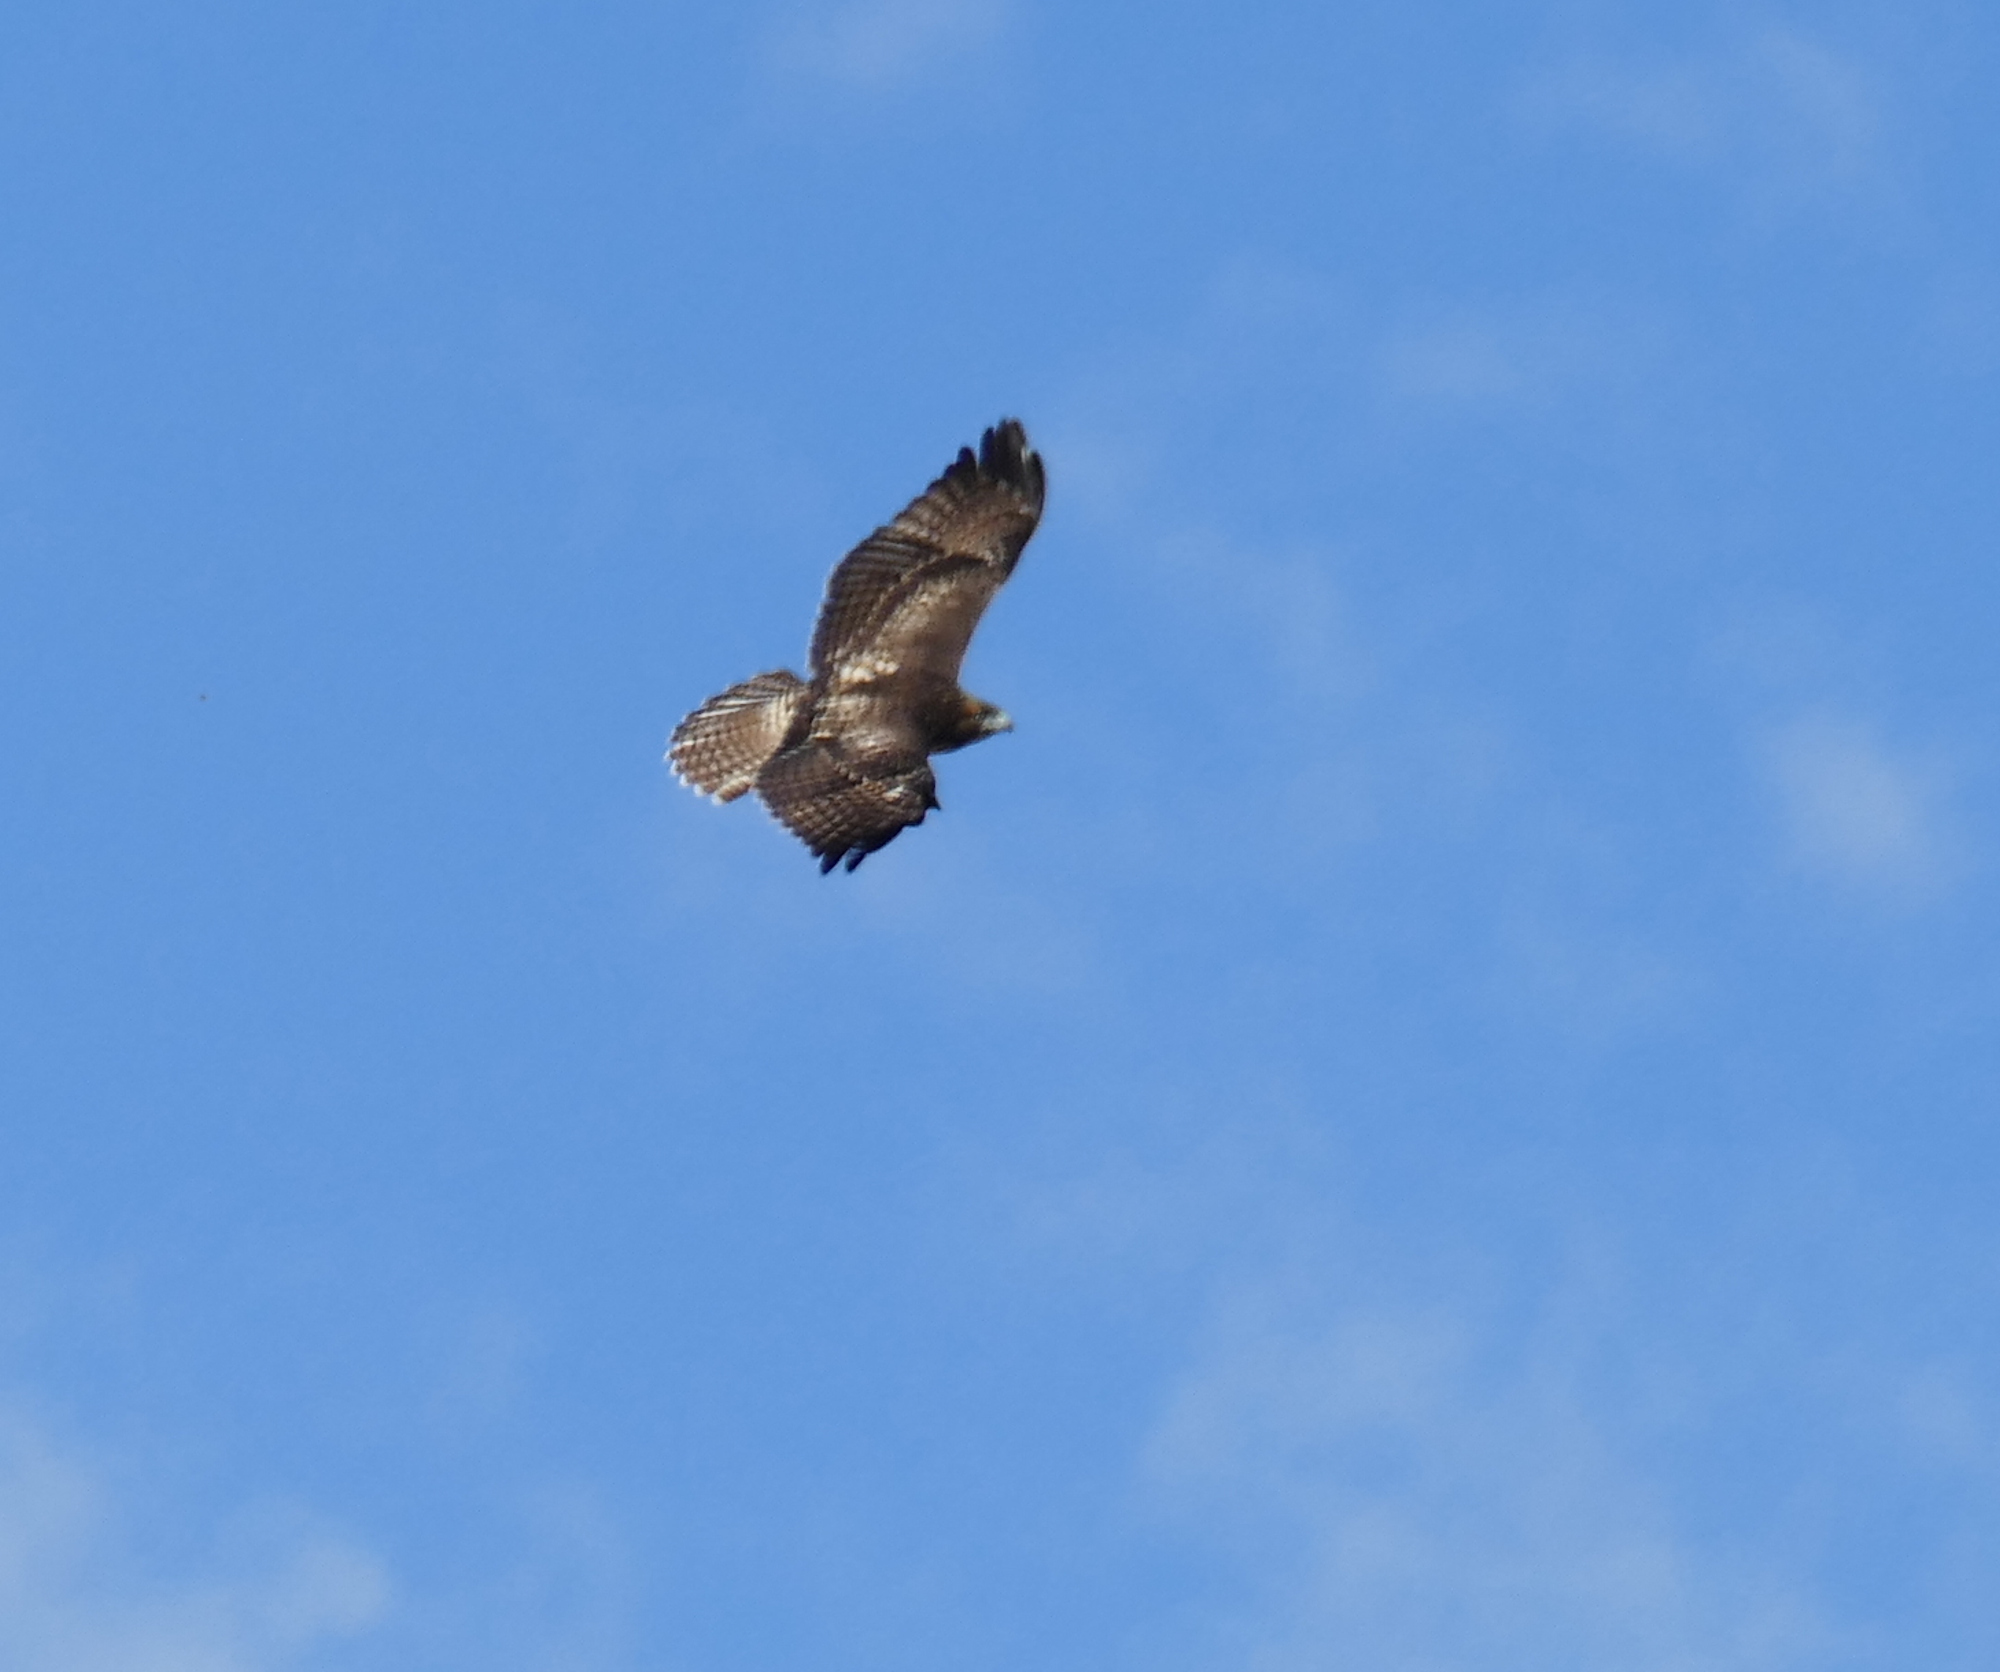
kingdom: Animalia
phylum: Chordata
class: Aves
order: Accipitriformes
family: Accipitridae
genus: Buteo
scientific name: Buteo jamaicensis
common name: Red-tailed hawk
